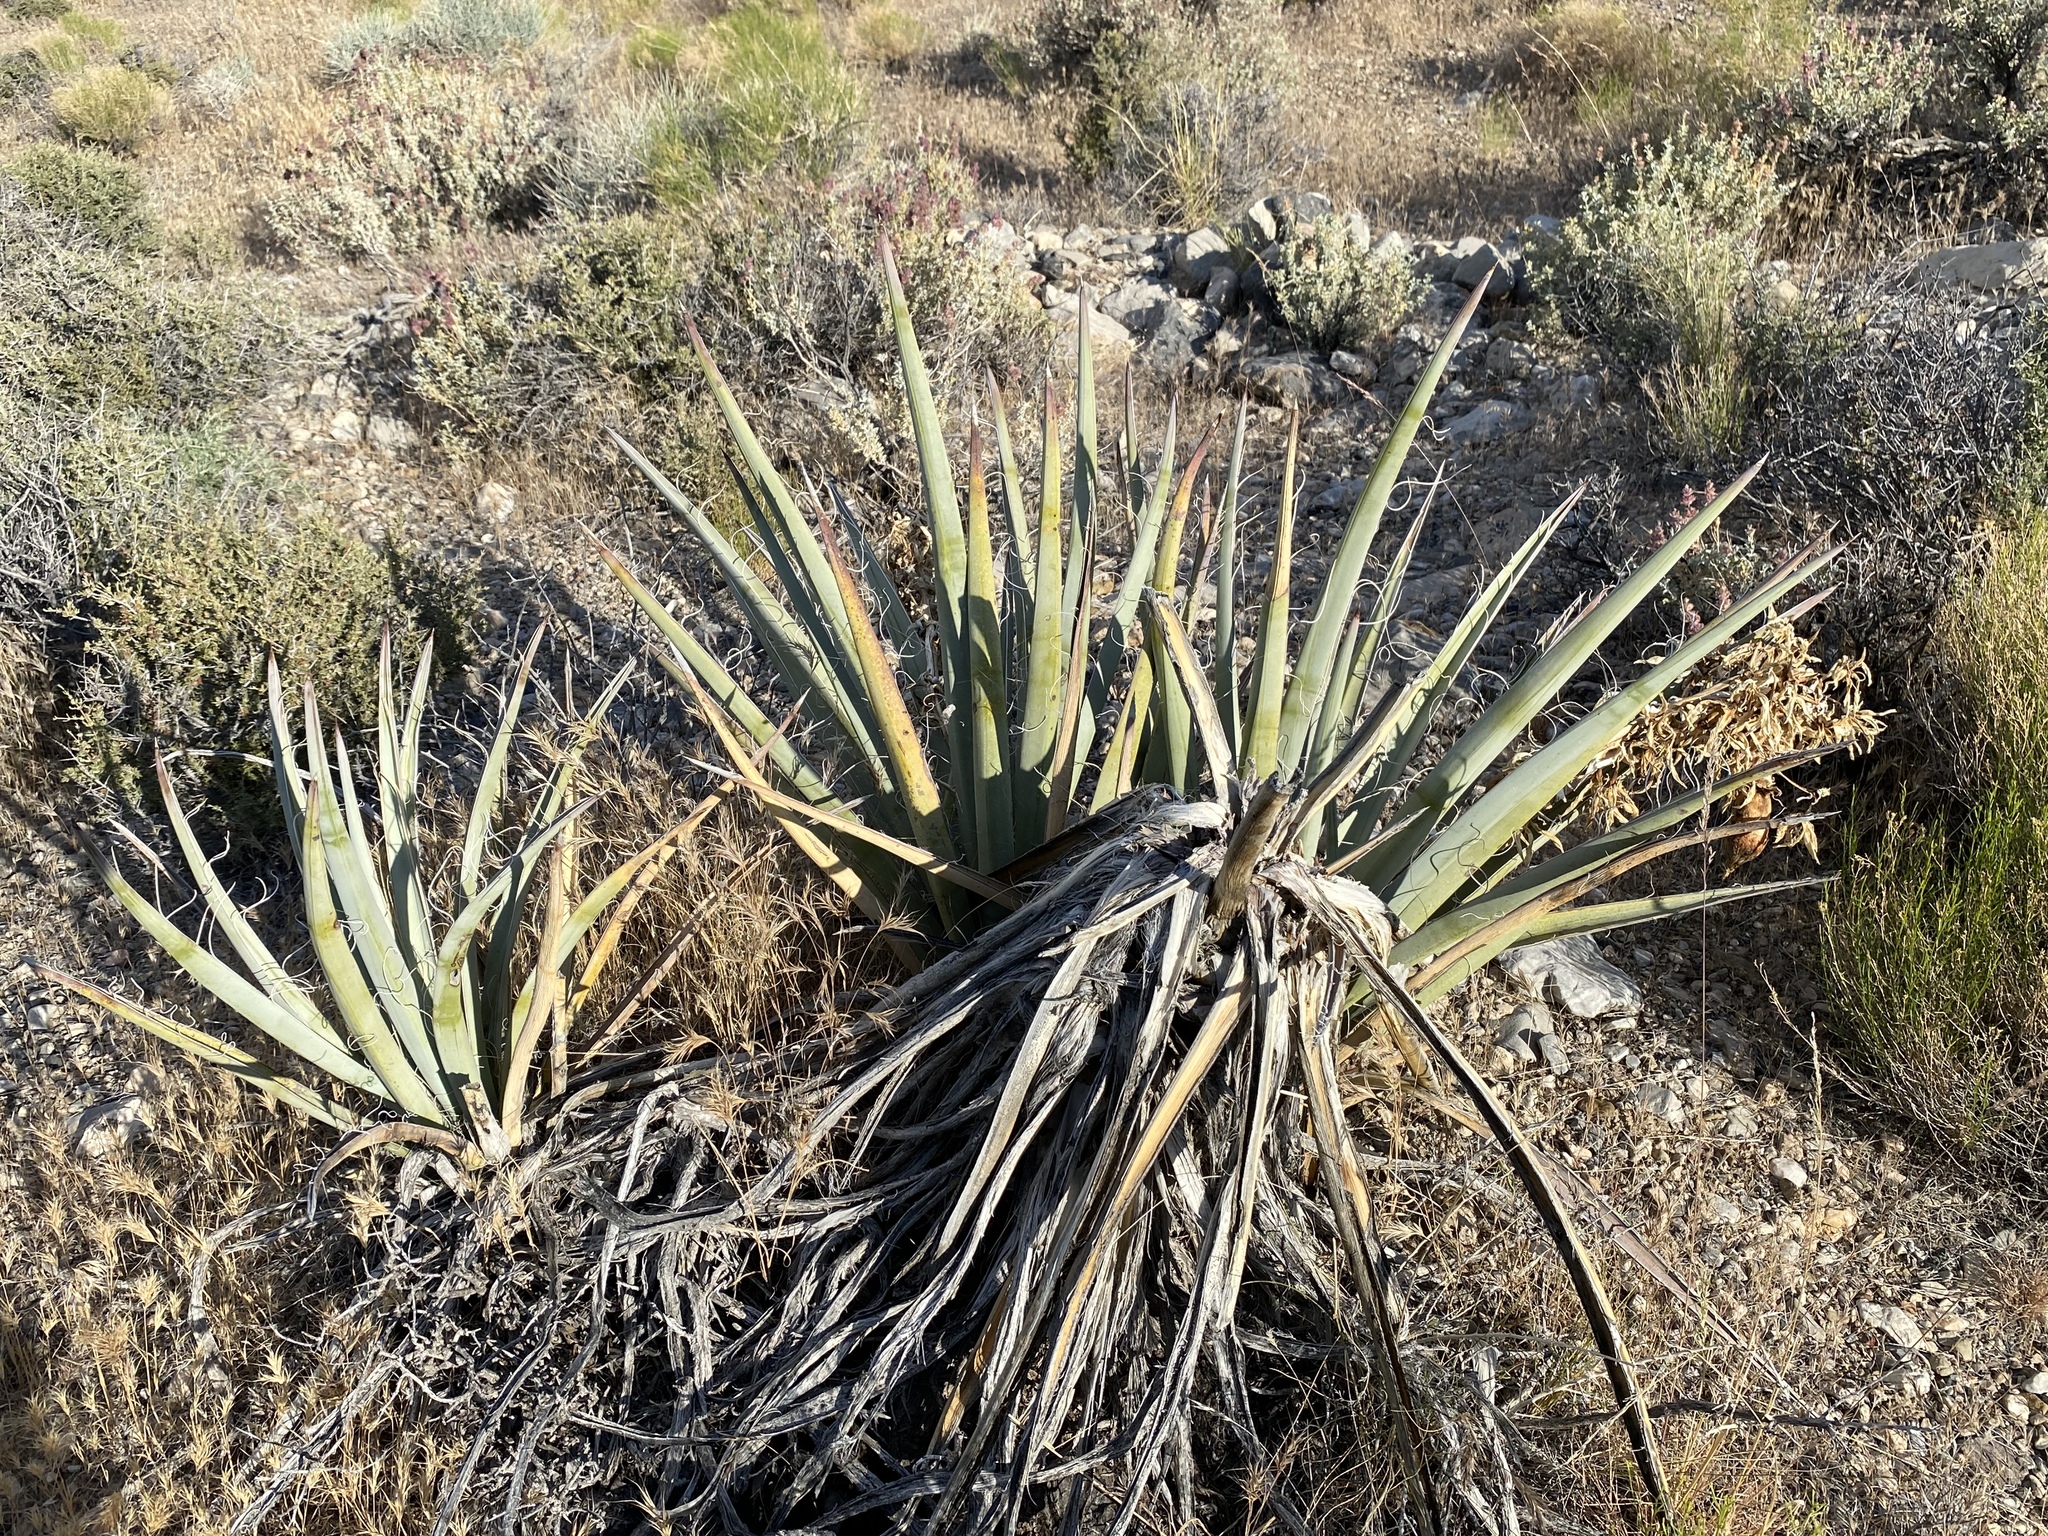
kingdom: Plantae
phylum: Tracheophyta
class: Liliopsida
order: Asparagales
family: Asparagaceae
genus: Yucca
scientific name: Yucca baccata
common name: Banana yucca
